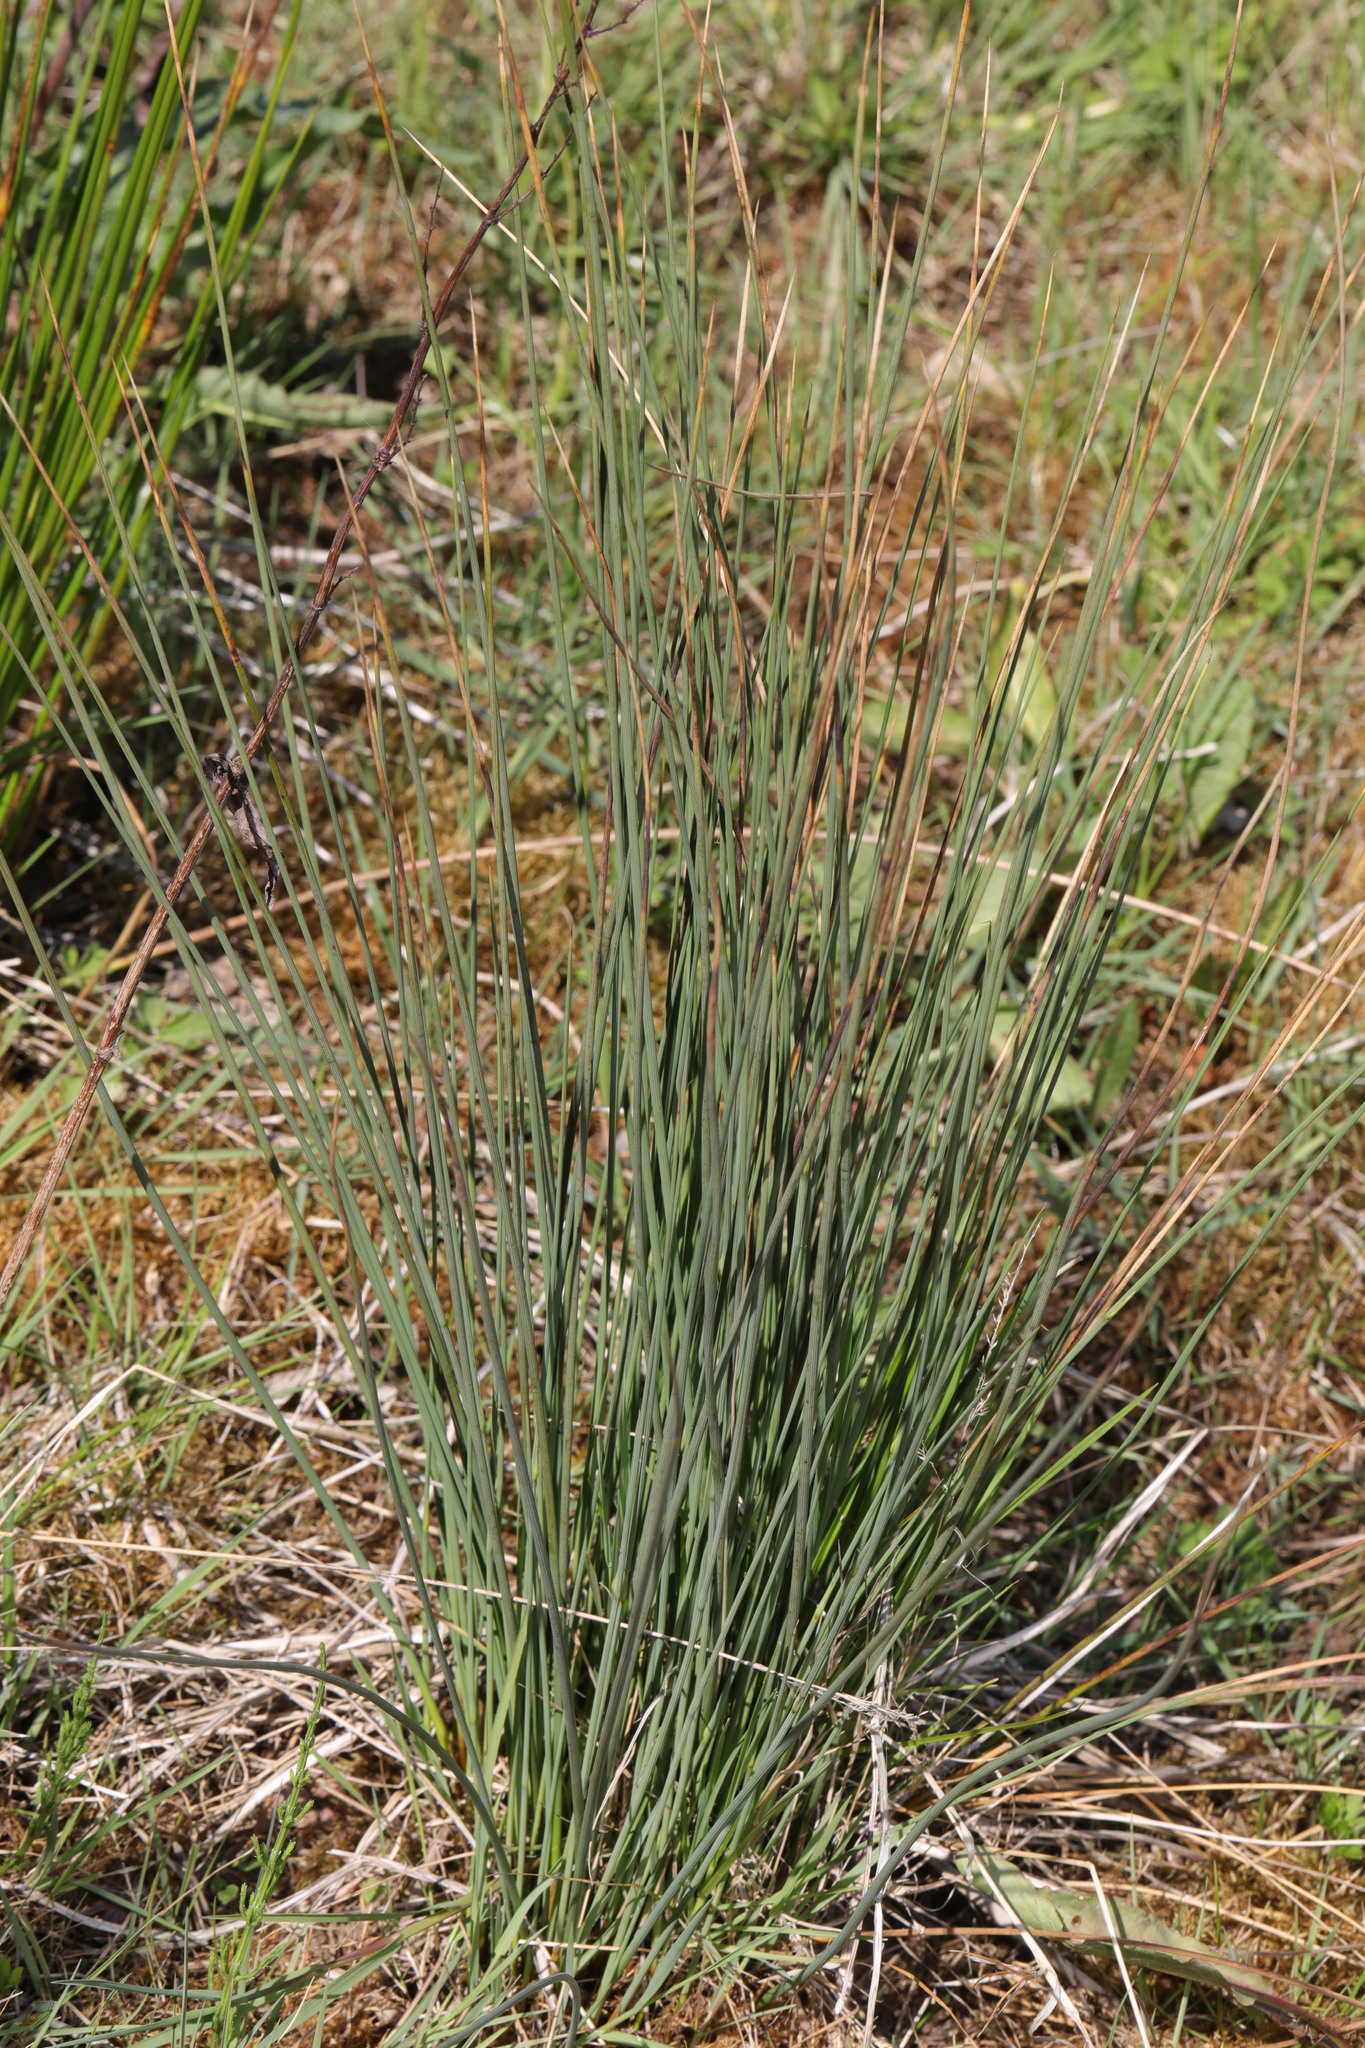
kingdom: Plantae
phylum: Tracheophyta
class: Liliopsida
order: Poales
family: Juncaceae
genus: Juncus
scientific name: Juncus inflexus
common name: Hard rush
